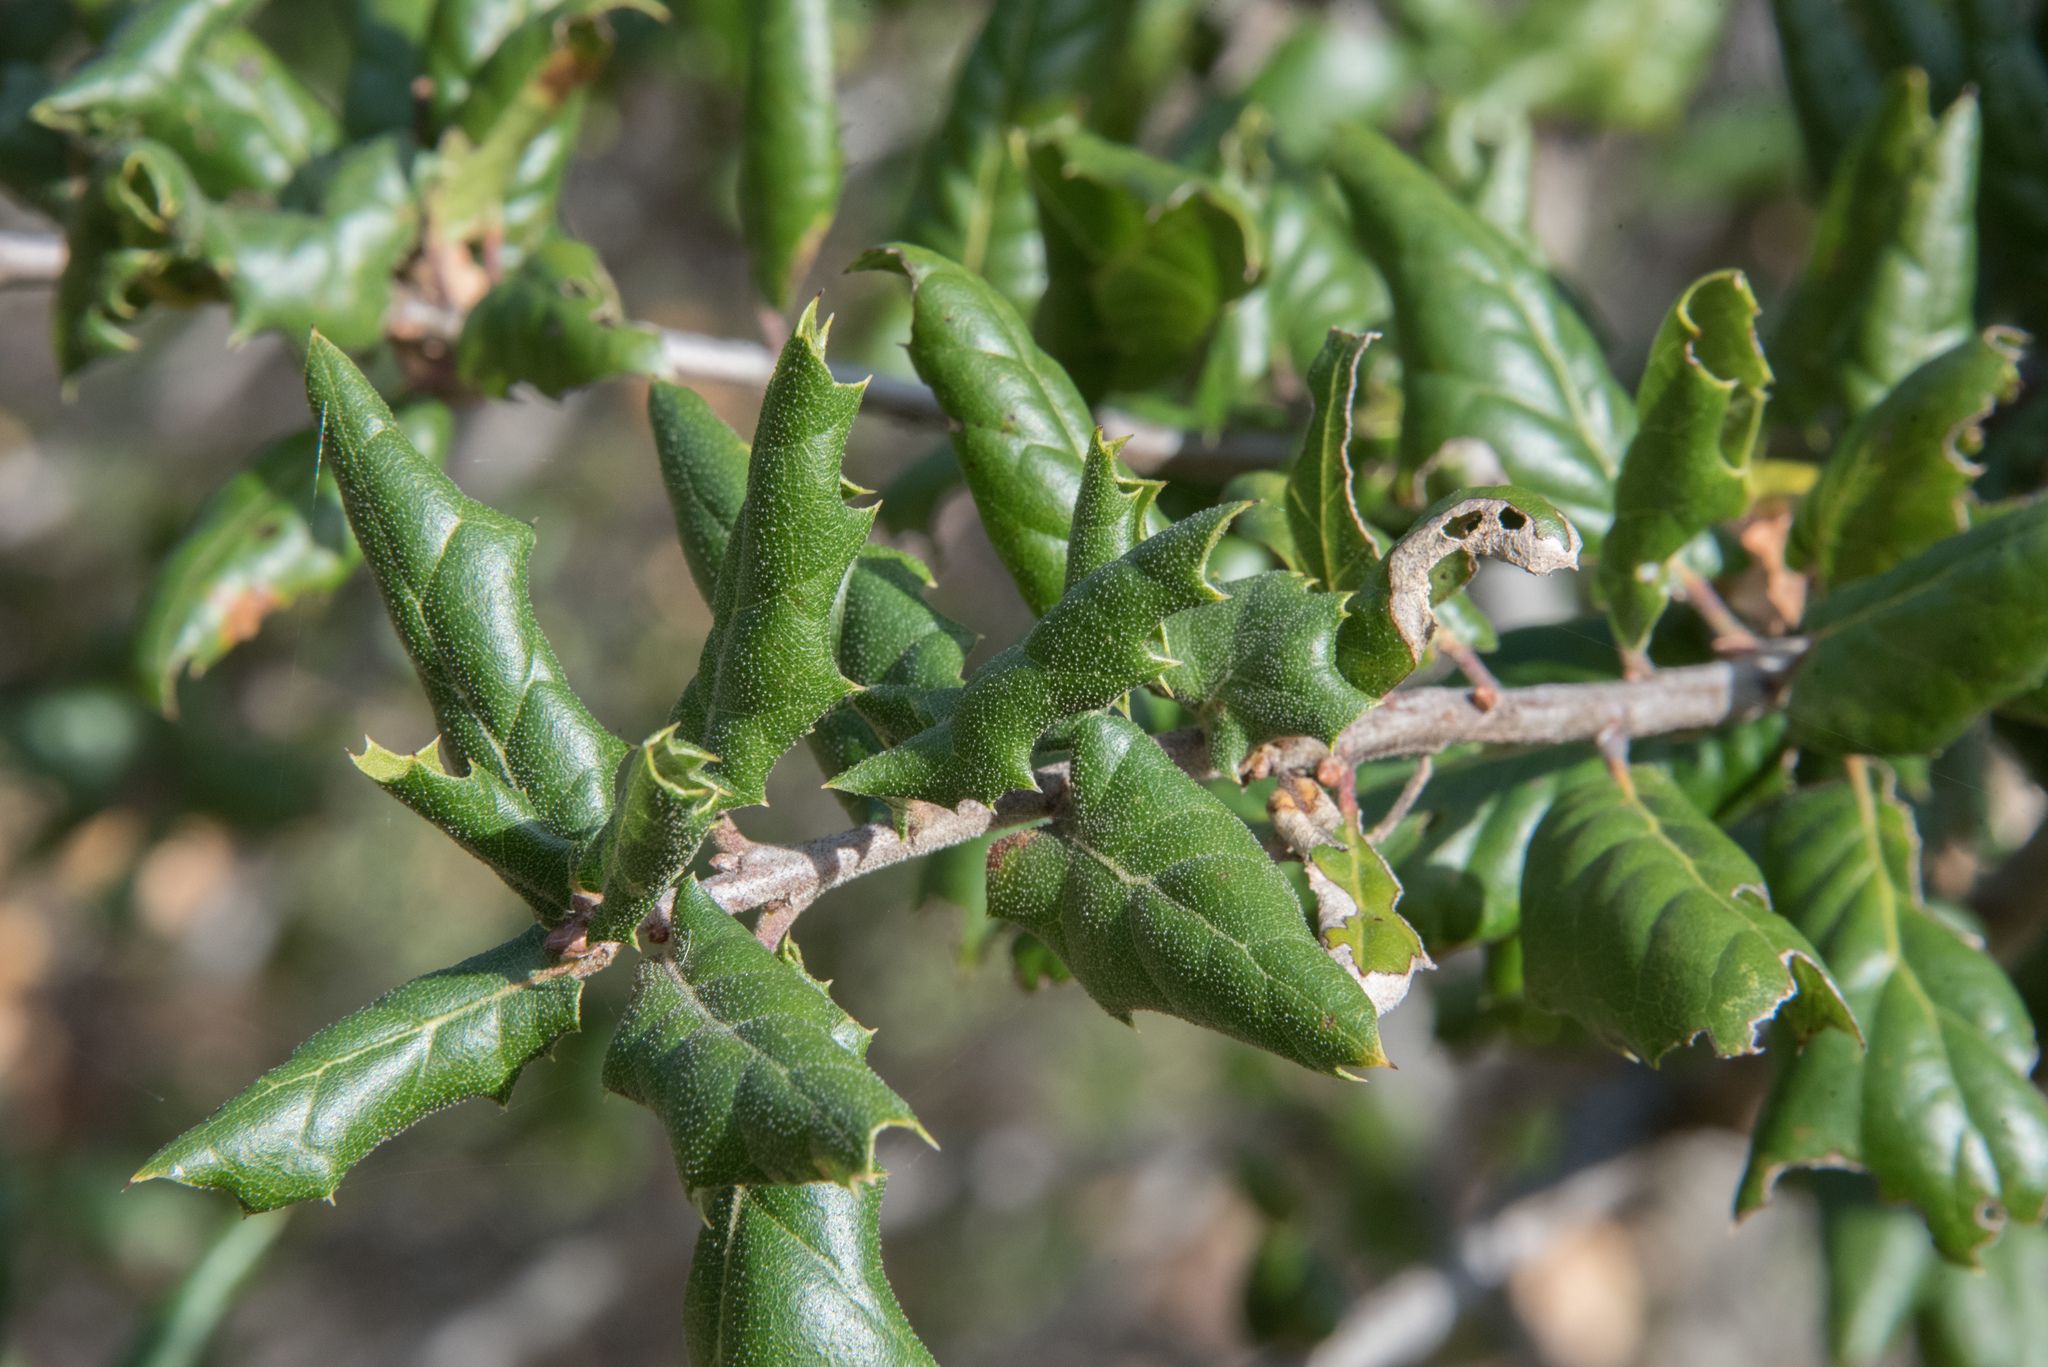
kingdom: Plantae
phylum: Tracheophyta
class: Magnoliopsida
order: Fagales
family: Fagaceae
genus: Quercus
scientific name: Quercus agrifolia
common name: California live oak
